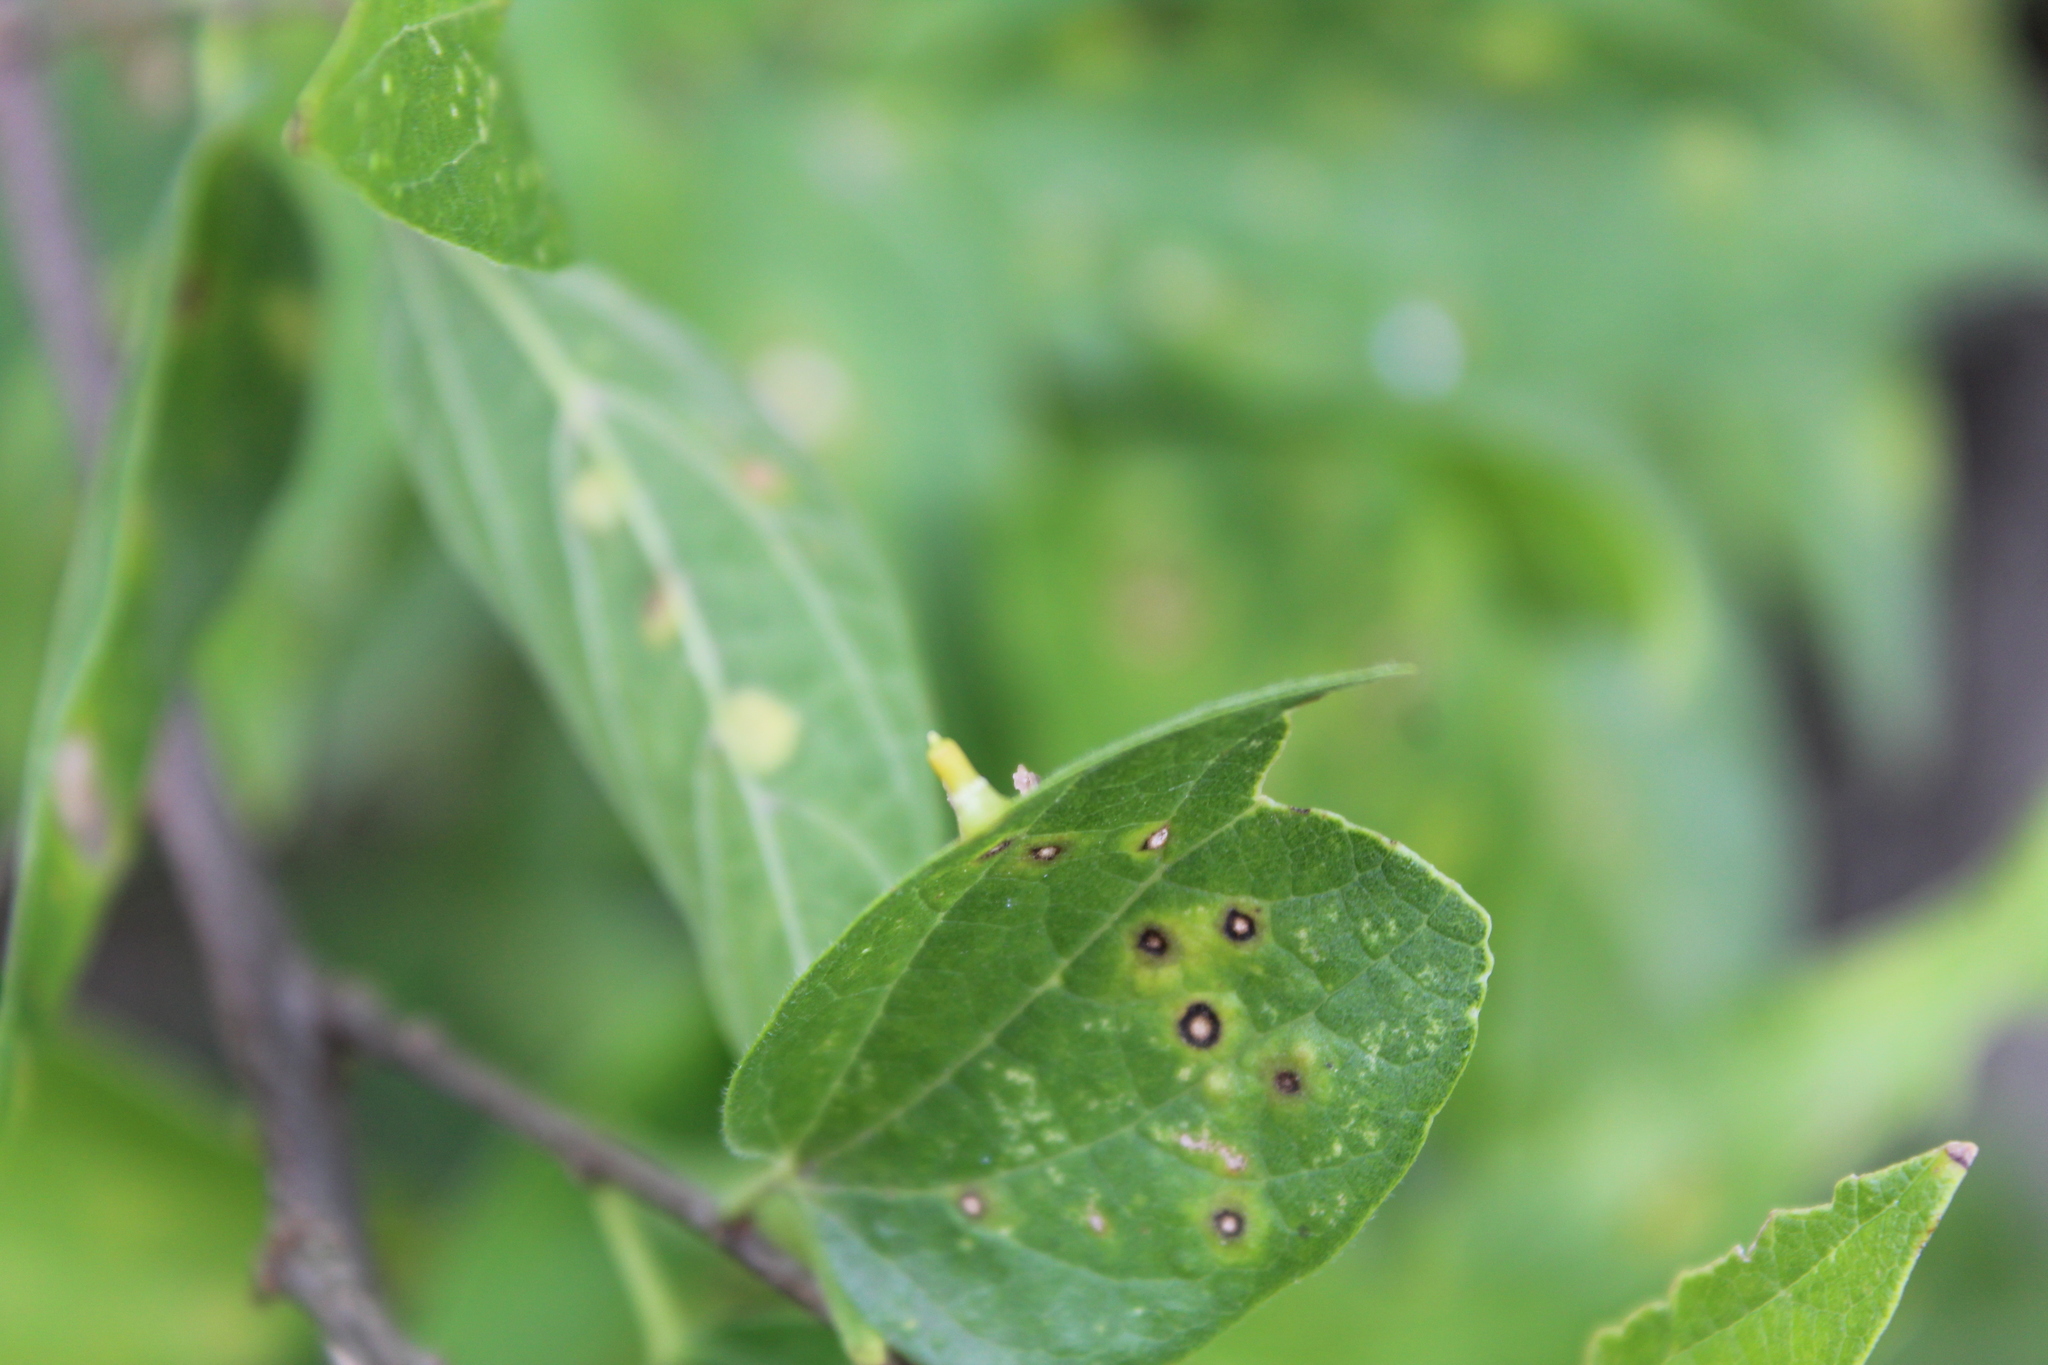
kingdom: Animalia
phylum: Arthropoda
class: Insecta
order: Diptera
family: Cecidomyiidae
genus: Celticecis
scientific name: Celticecis aciculata
